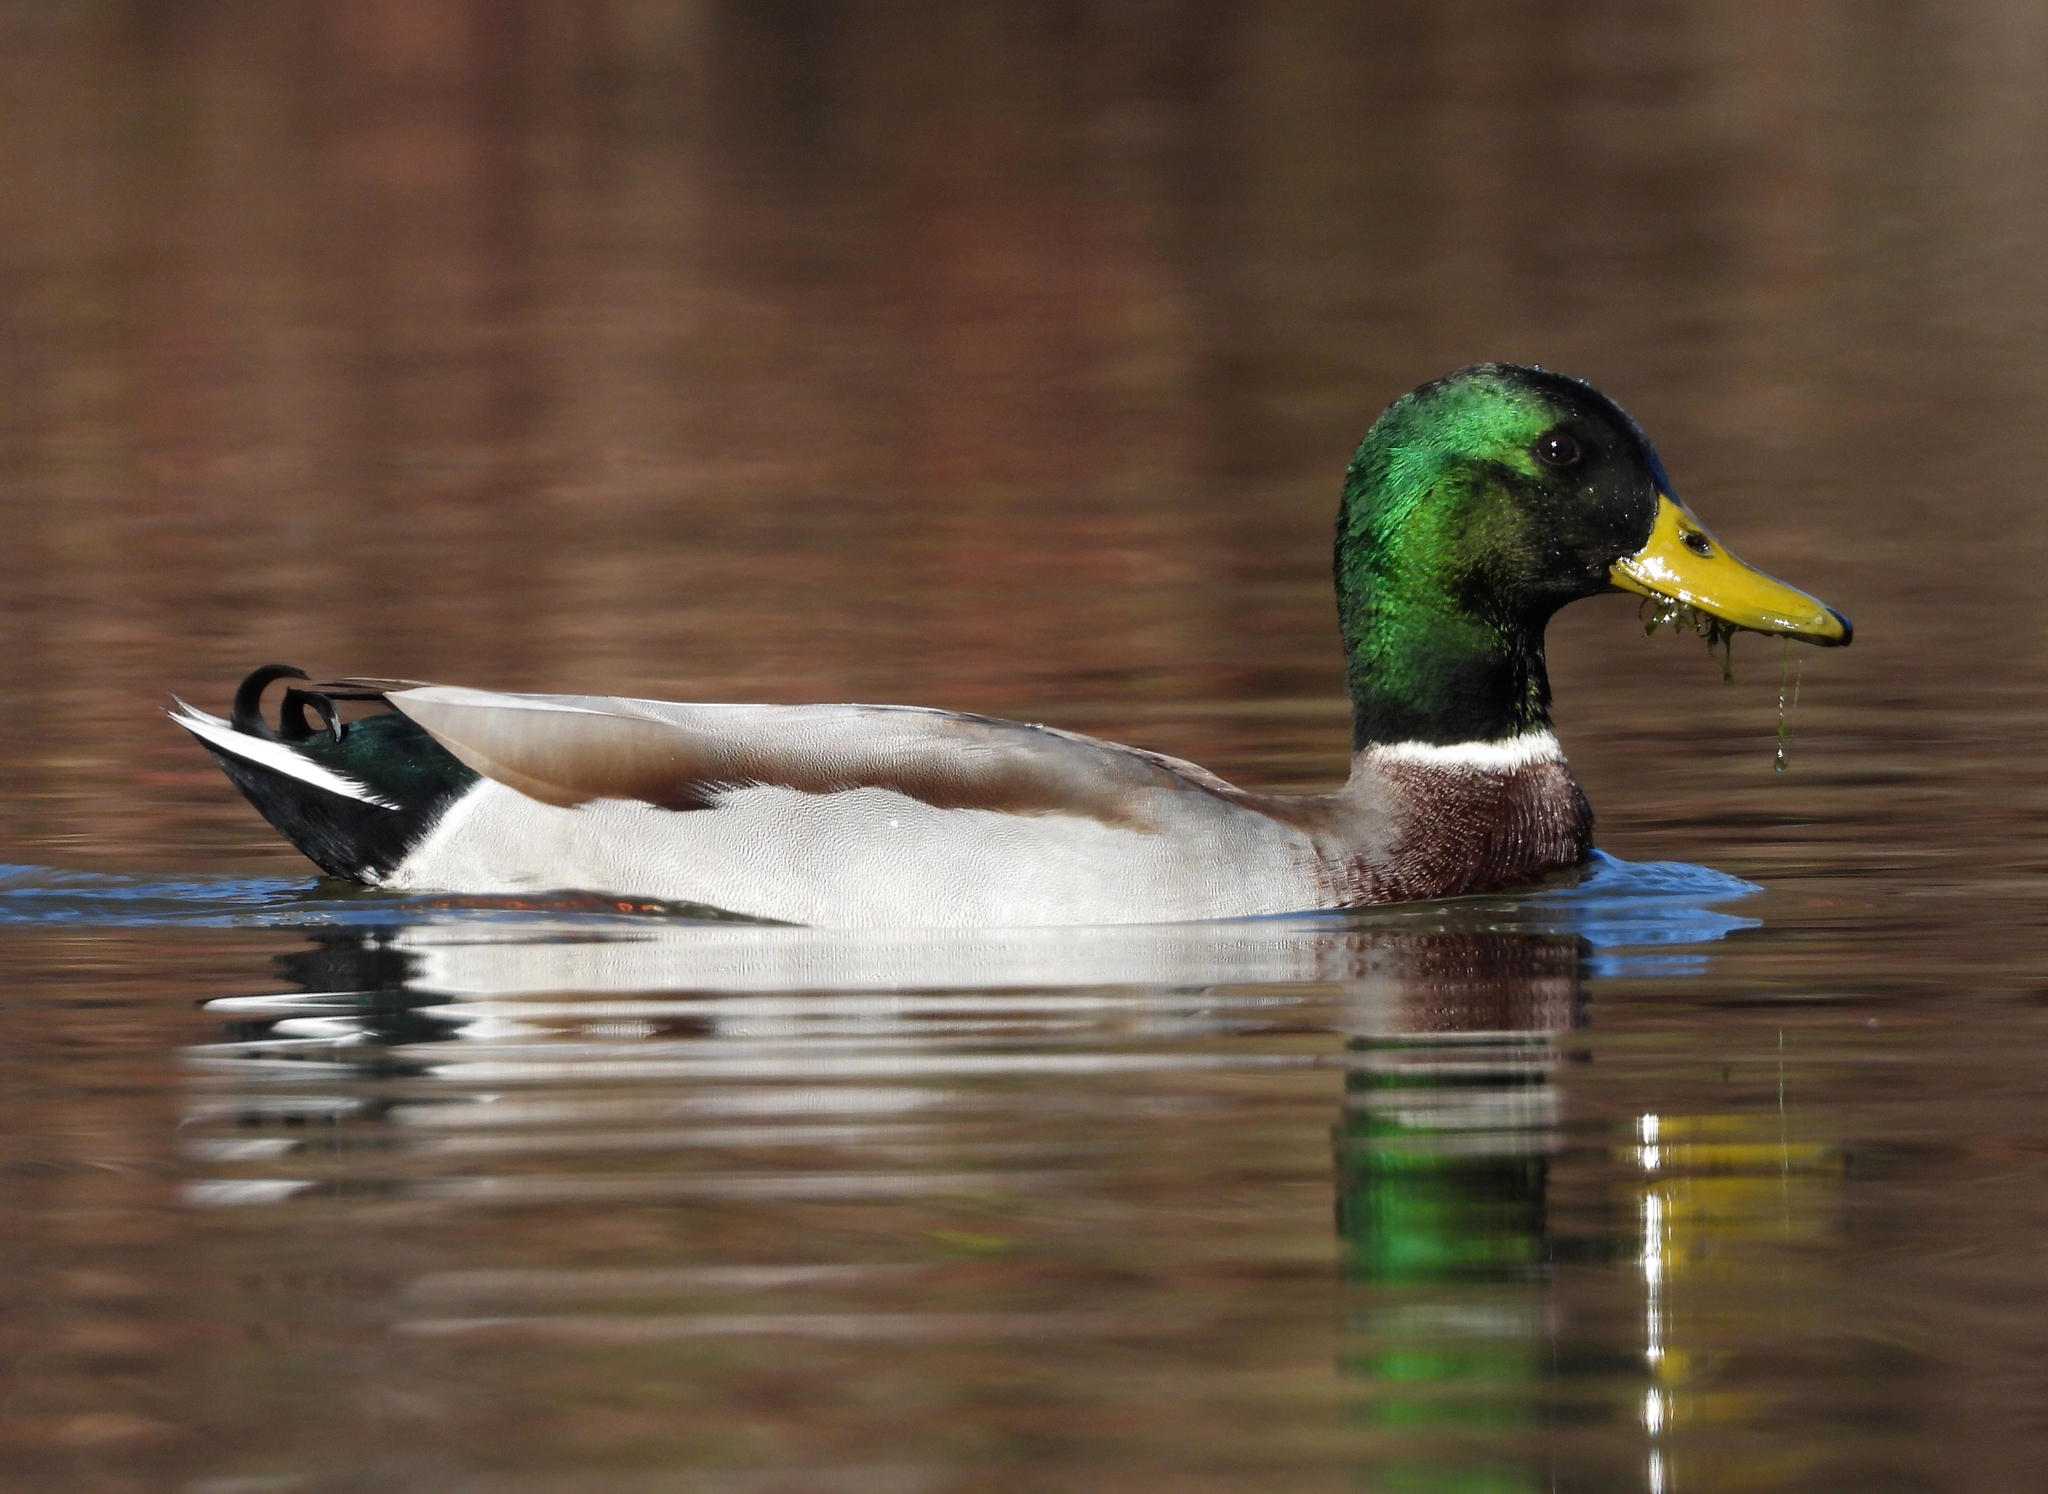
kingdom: Animalia
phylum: Chordata
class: Aves
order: Anseriformes
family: Anatidae
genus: Anas
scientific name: Anas platyrhynchos
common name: Mallard
